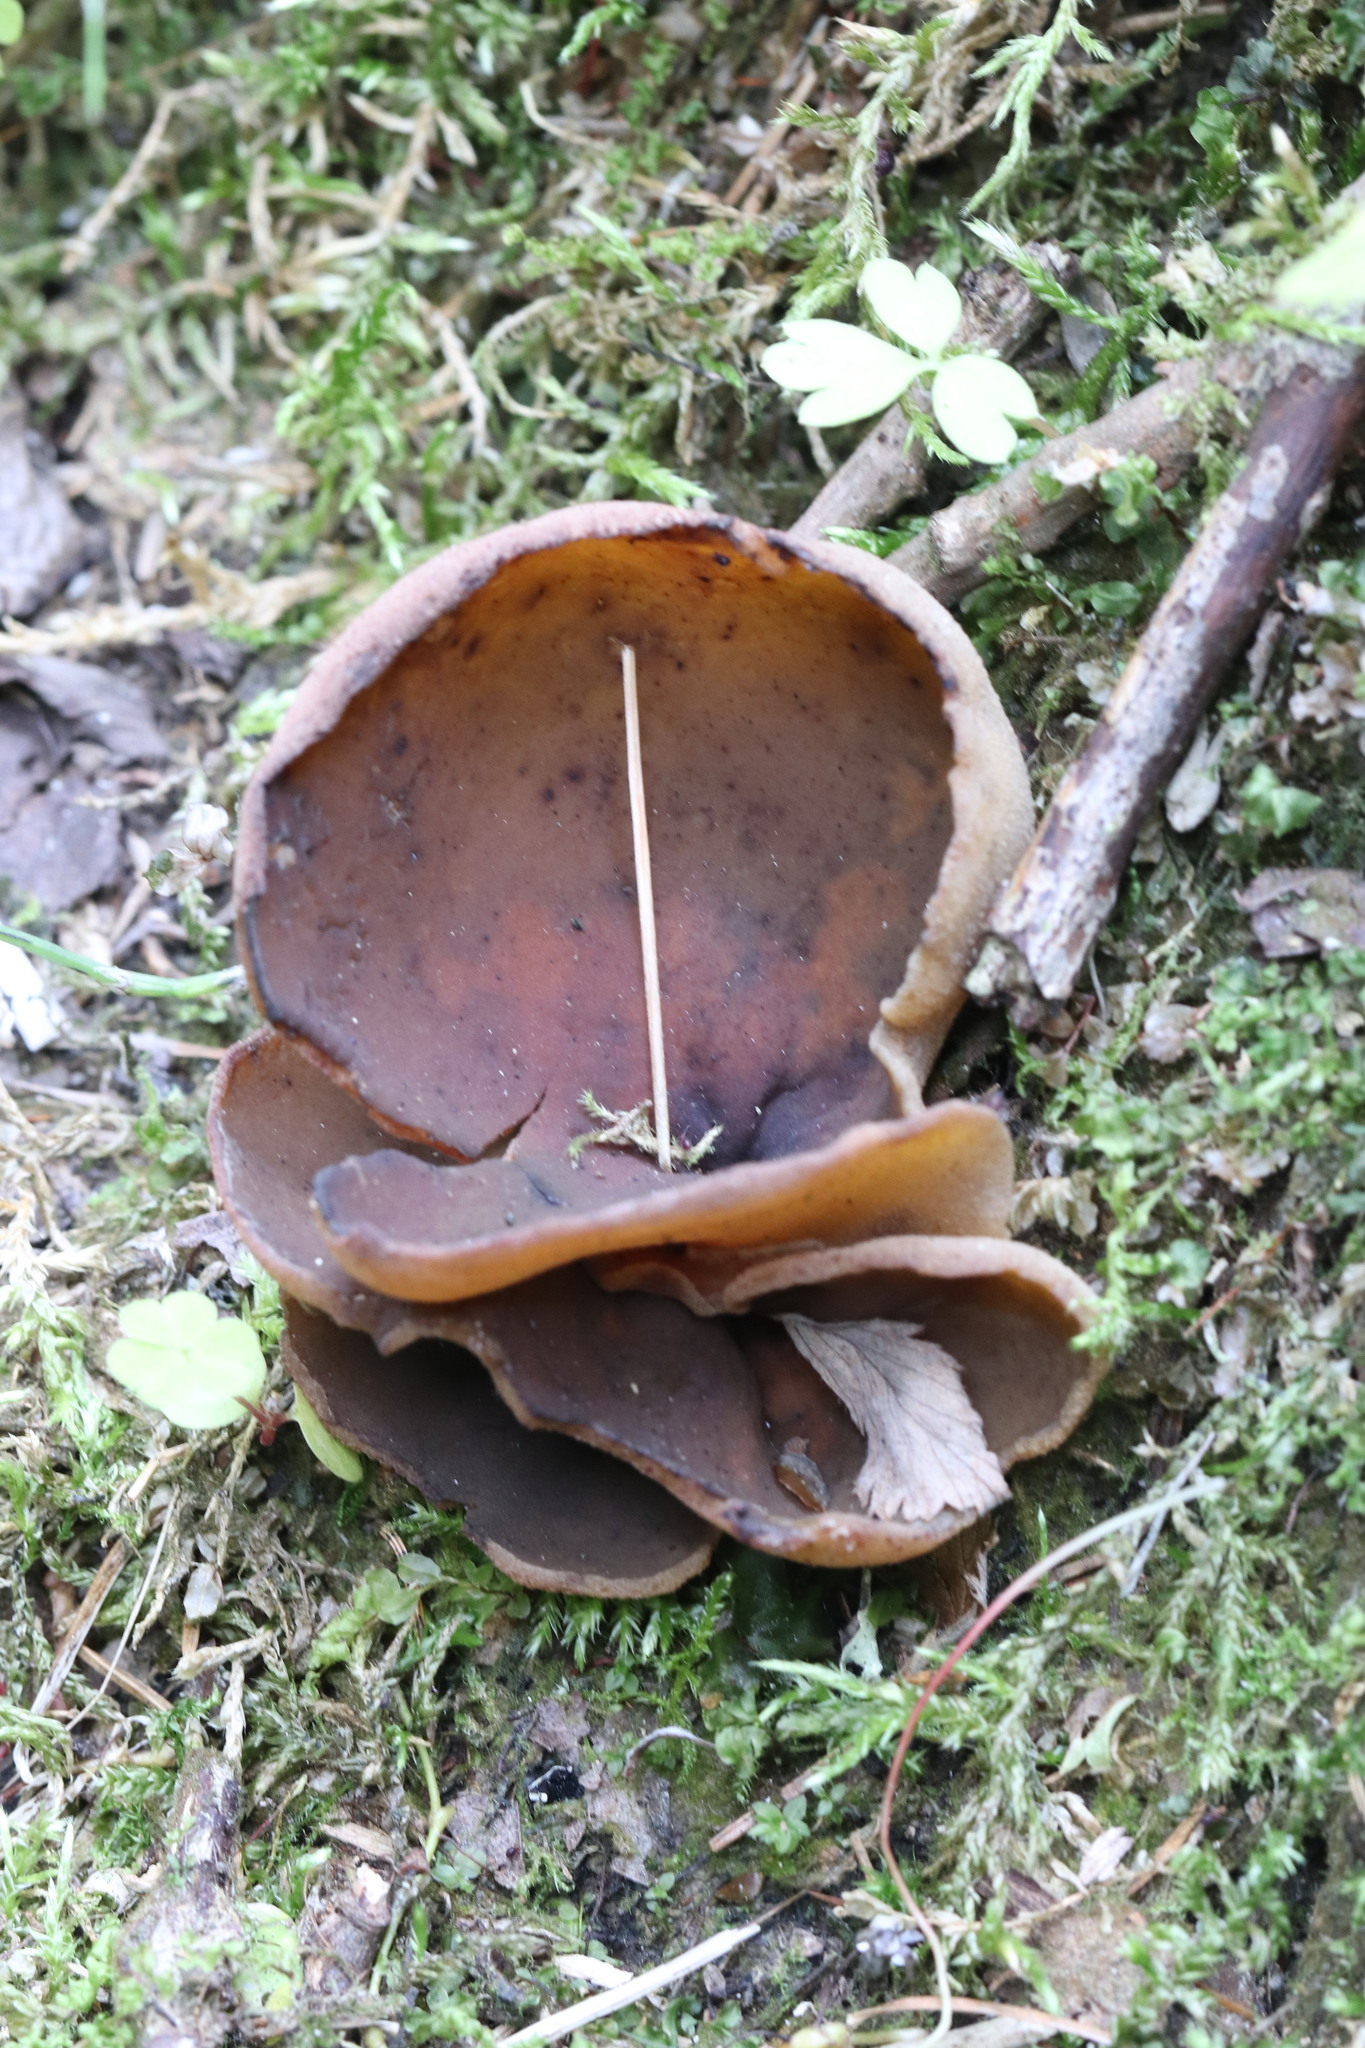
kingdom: Fungi
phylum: Ascomycota
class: Pezizomycetes
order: Pezizales
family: Pezizaceae
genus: Legaliana
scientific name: Legaliana badia
